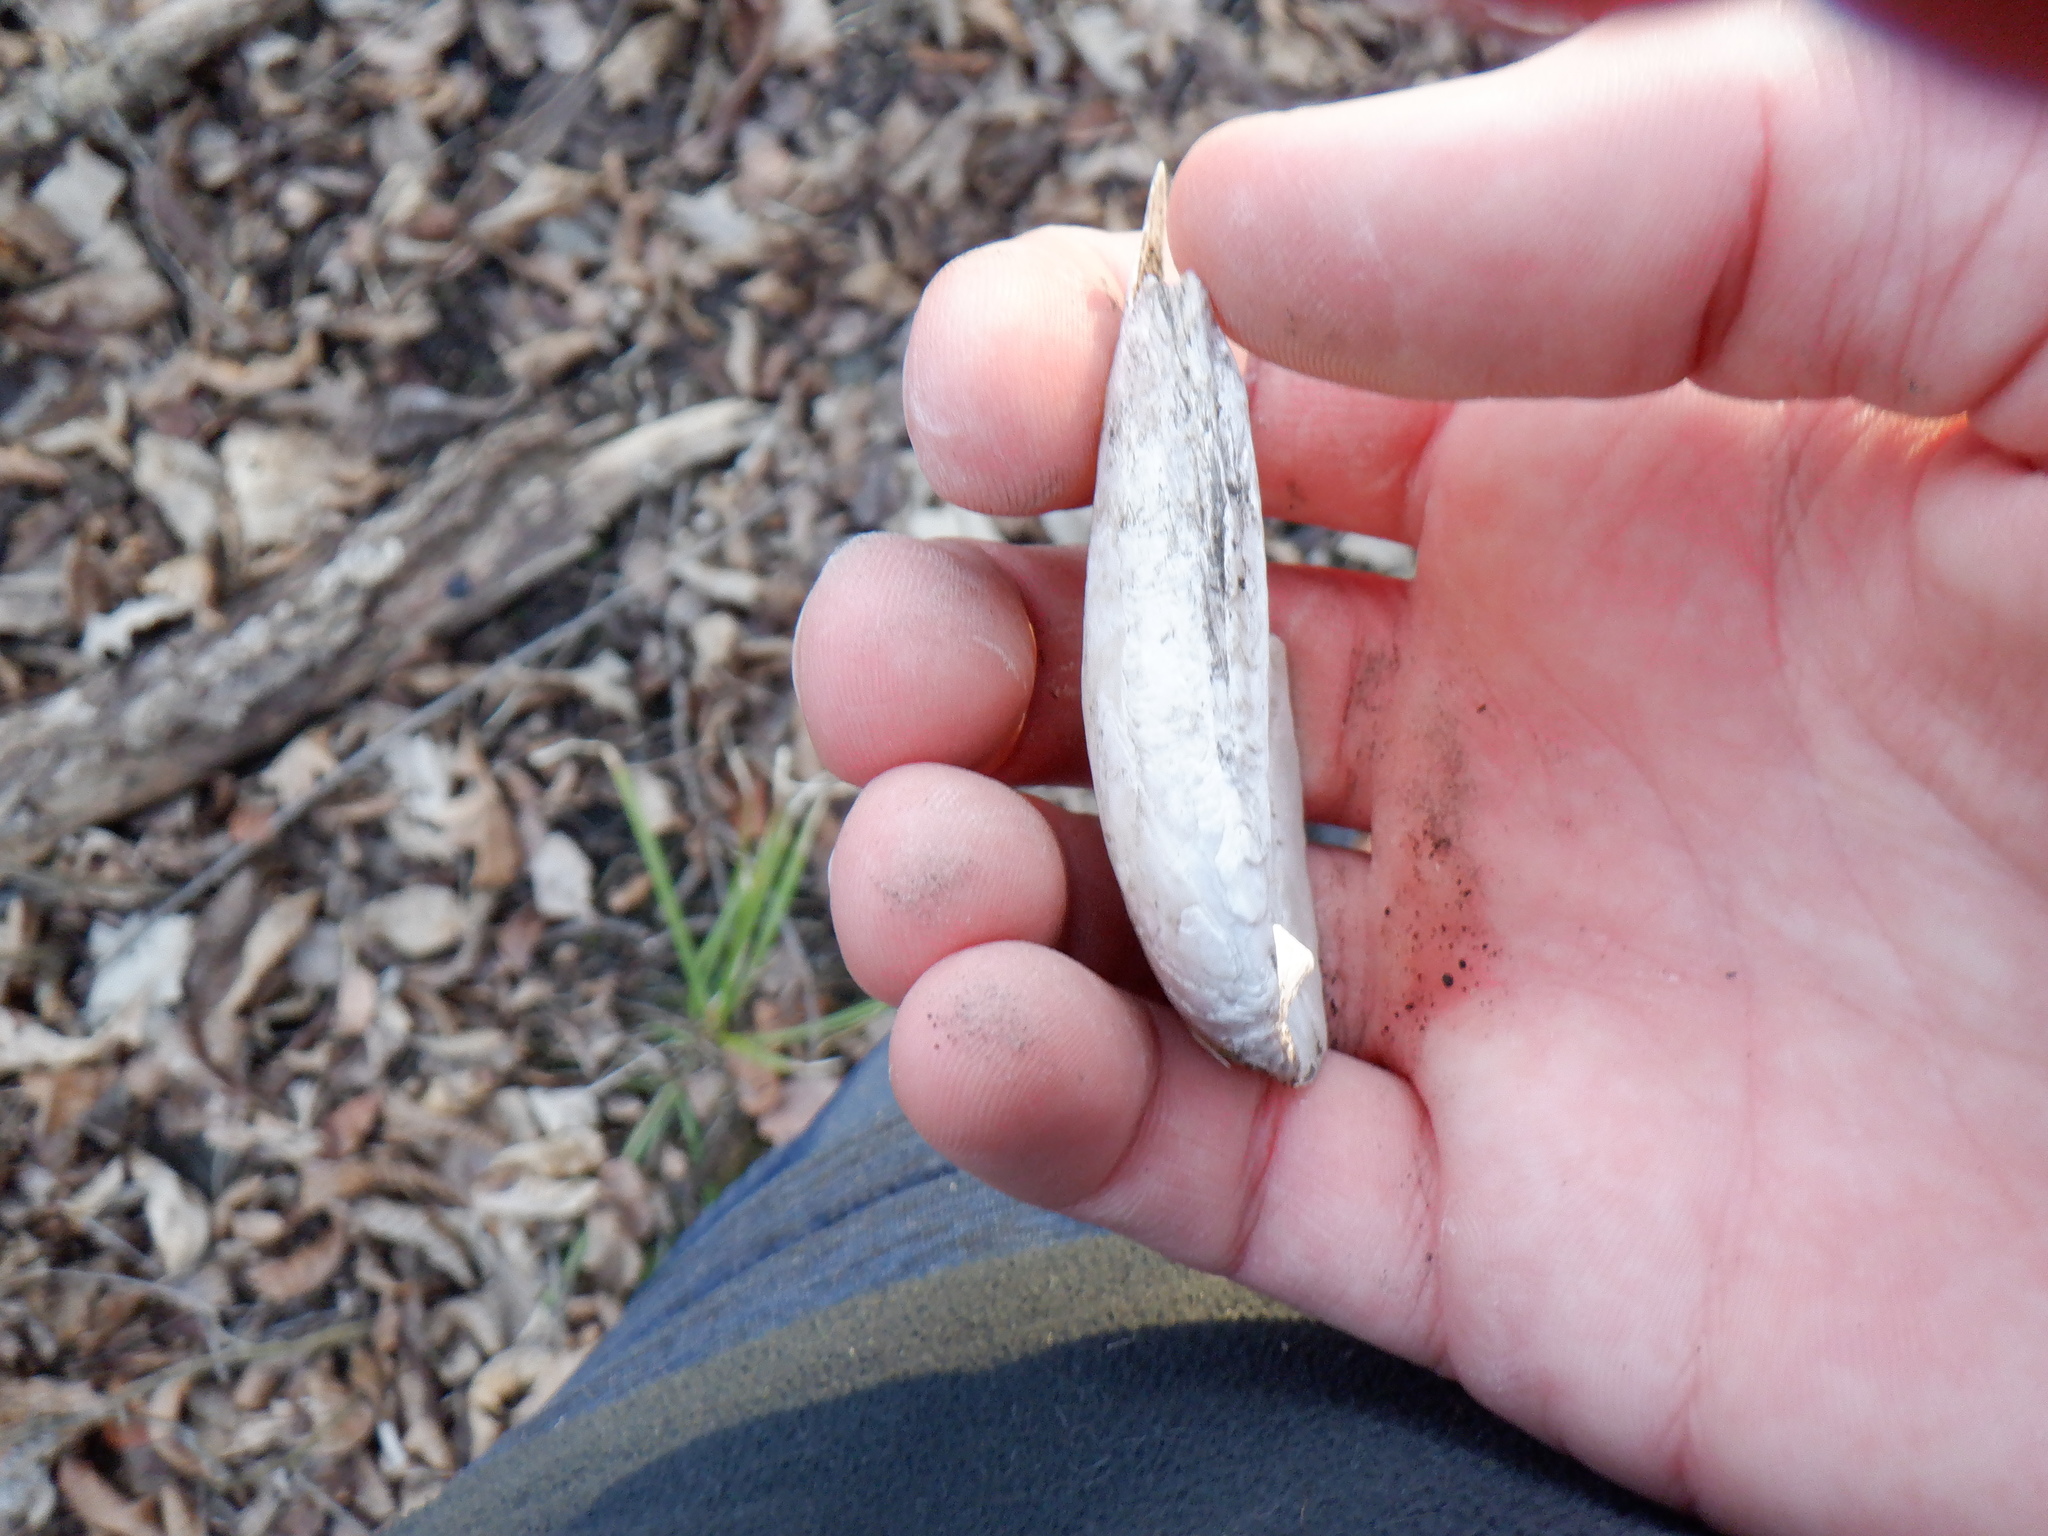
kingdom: Animalia
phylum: Mollusca
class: Bivalvia
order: Unionida
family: Unionidae
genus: Venustaconcha
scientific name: Venustaconcha ellipsiformis
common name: Ellipse
